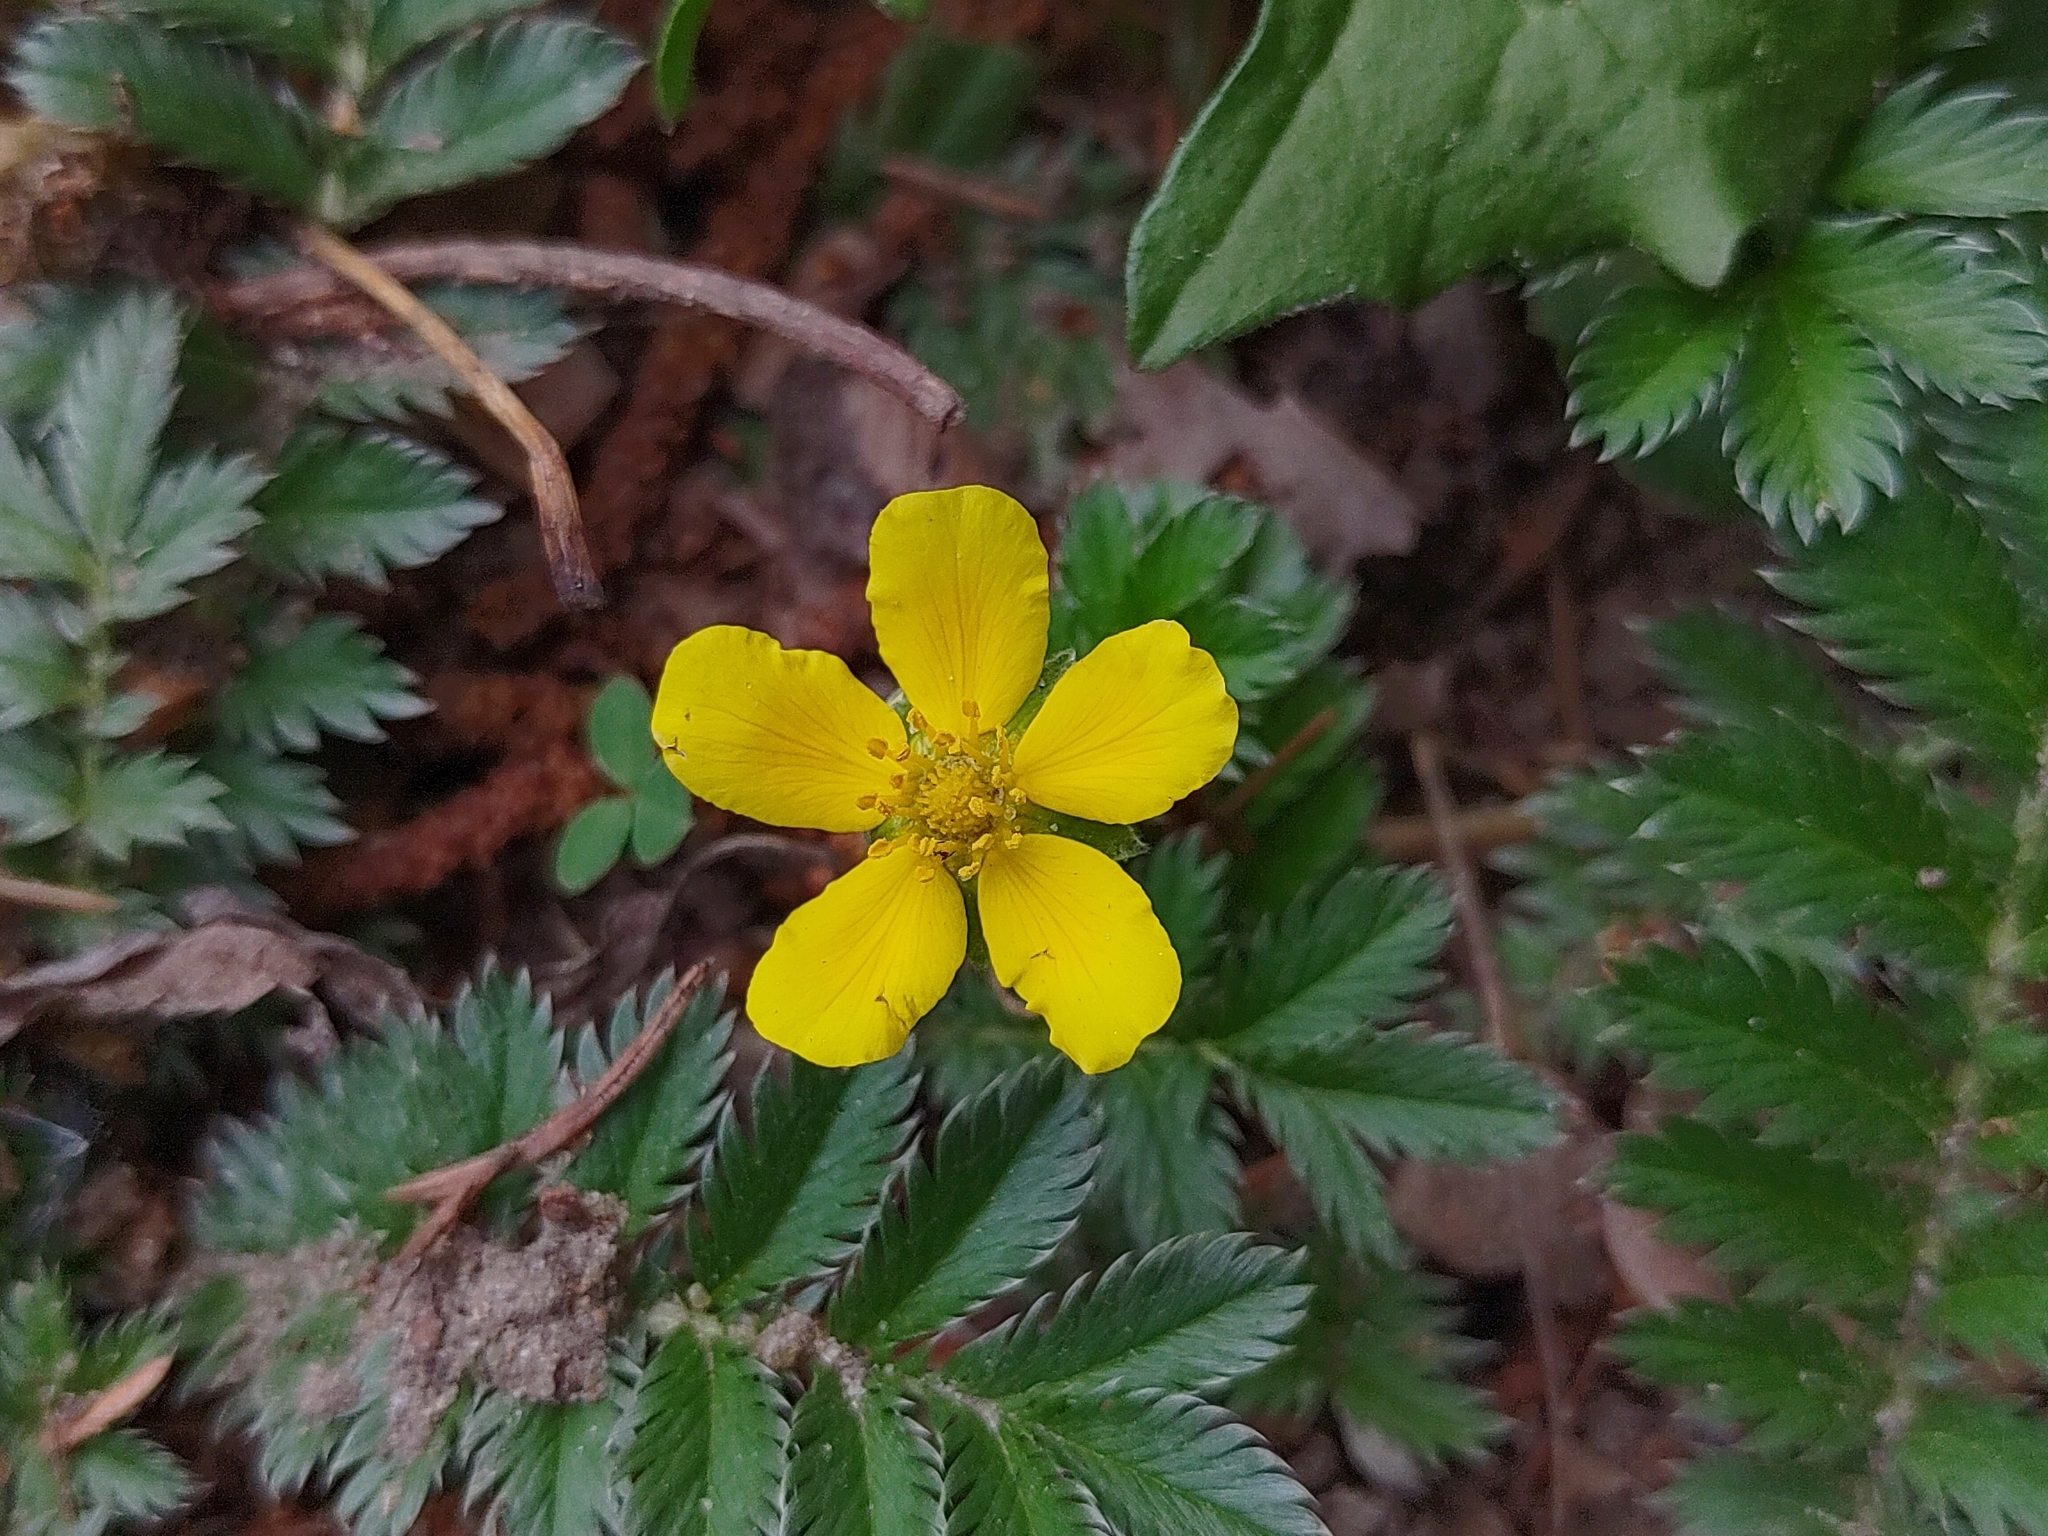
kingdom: Plantae
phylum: Tracheophyta
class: Magnoliopsida
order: Rosales
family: Rosaceae
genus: Argentina
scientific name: Argentina anserina
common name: Common silverweed
